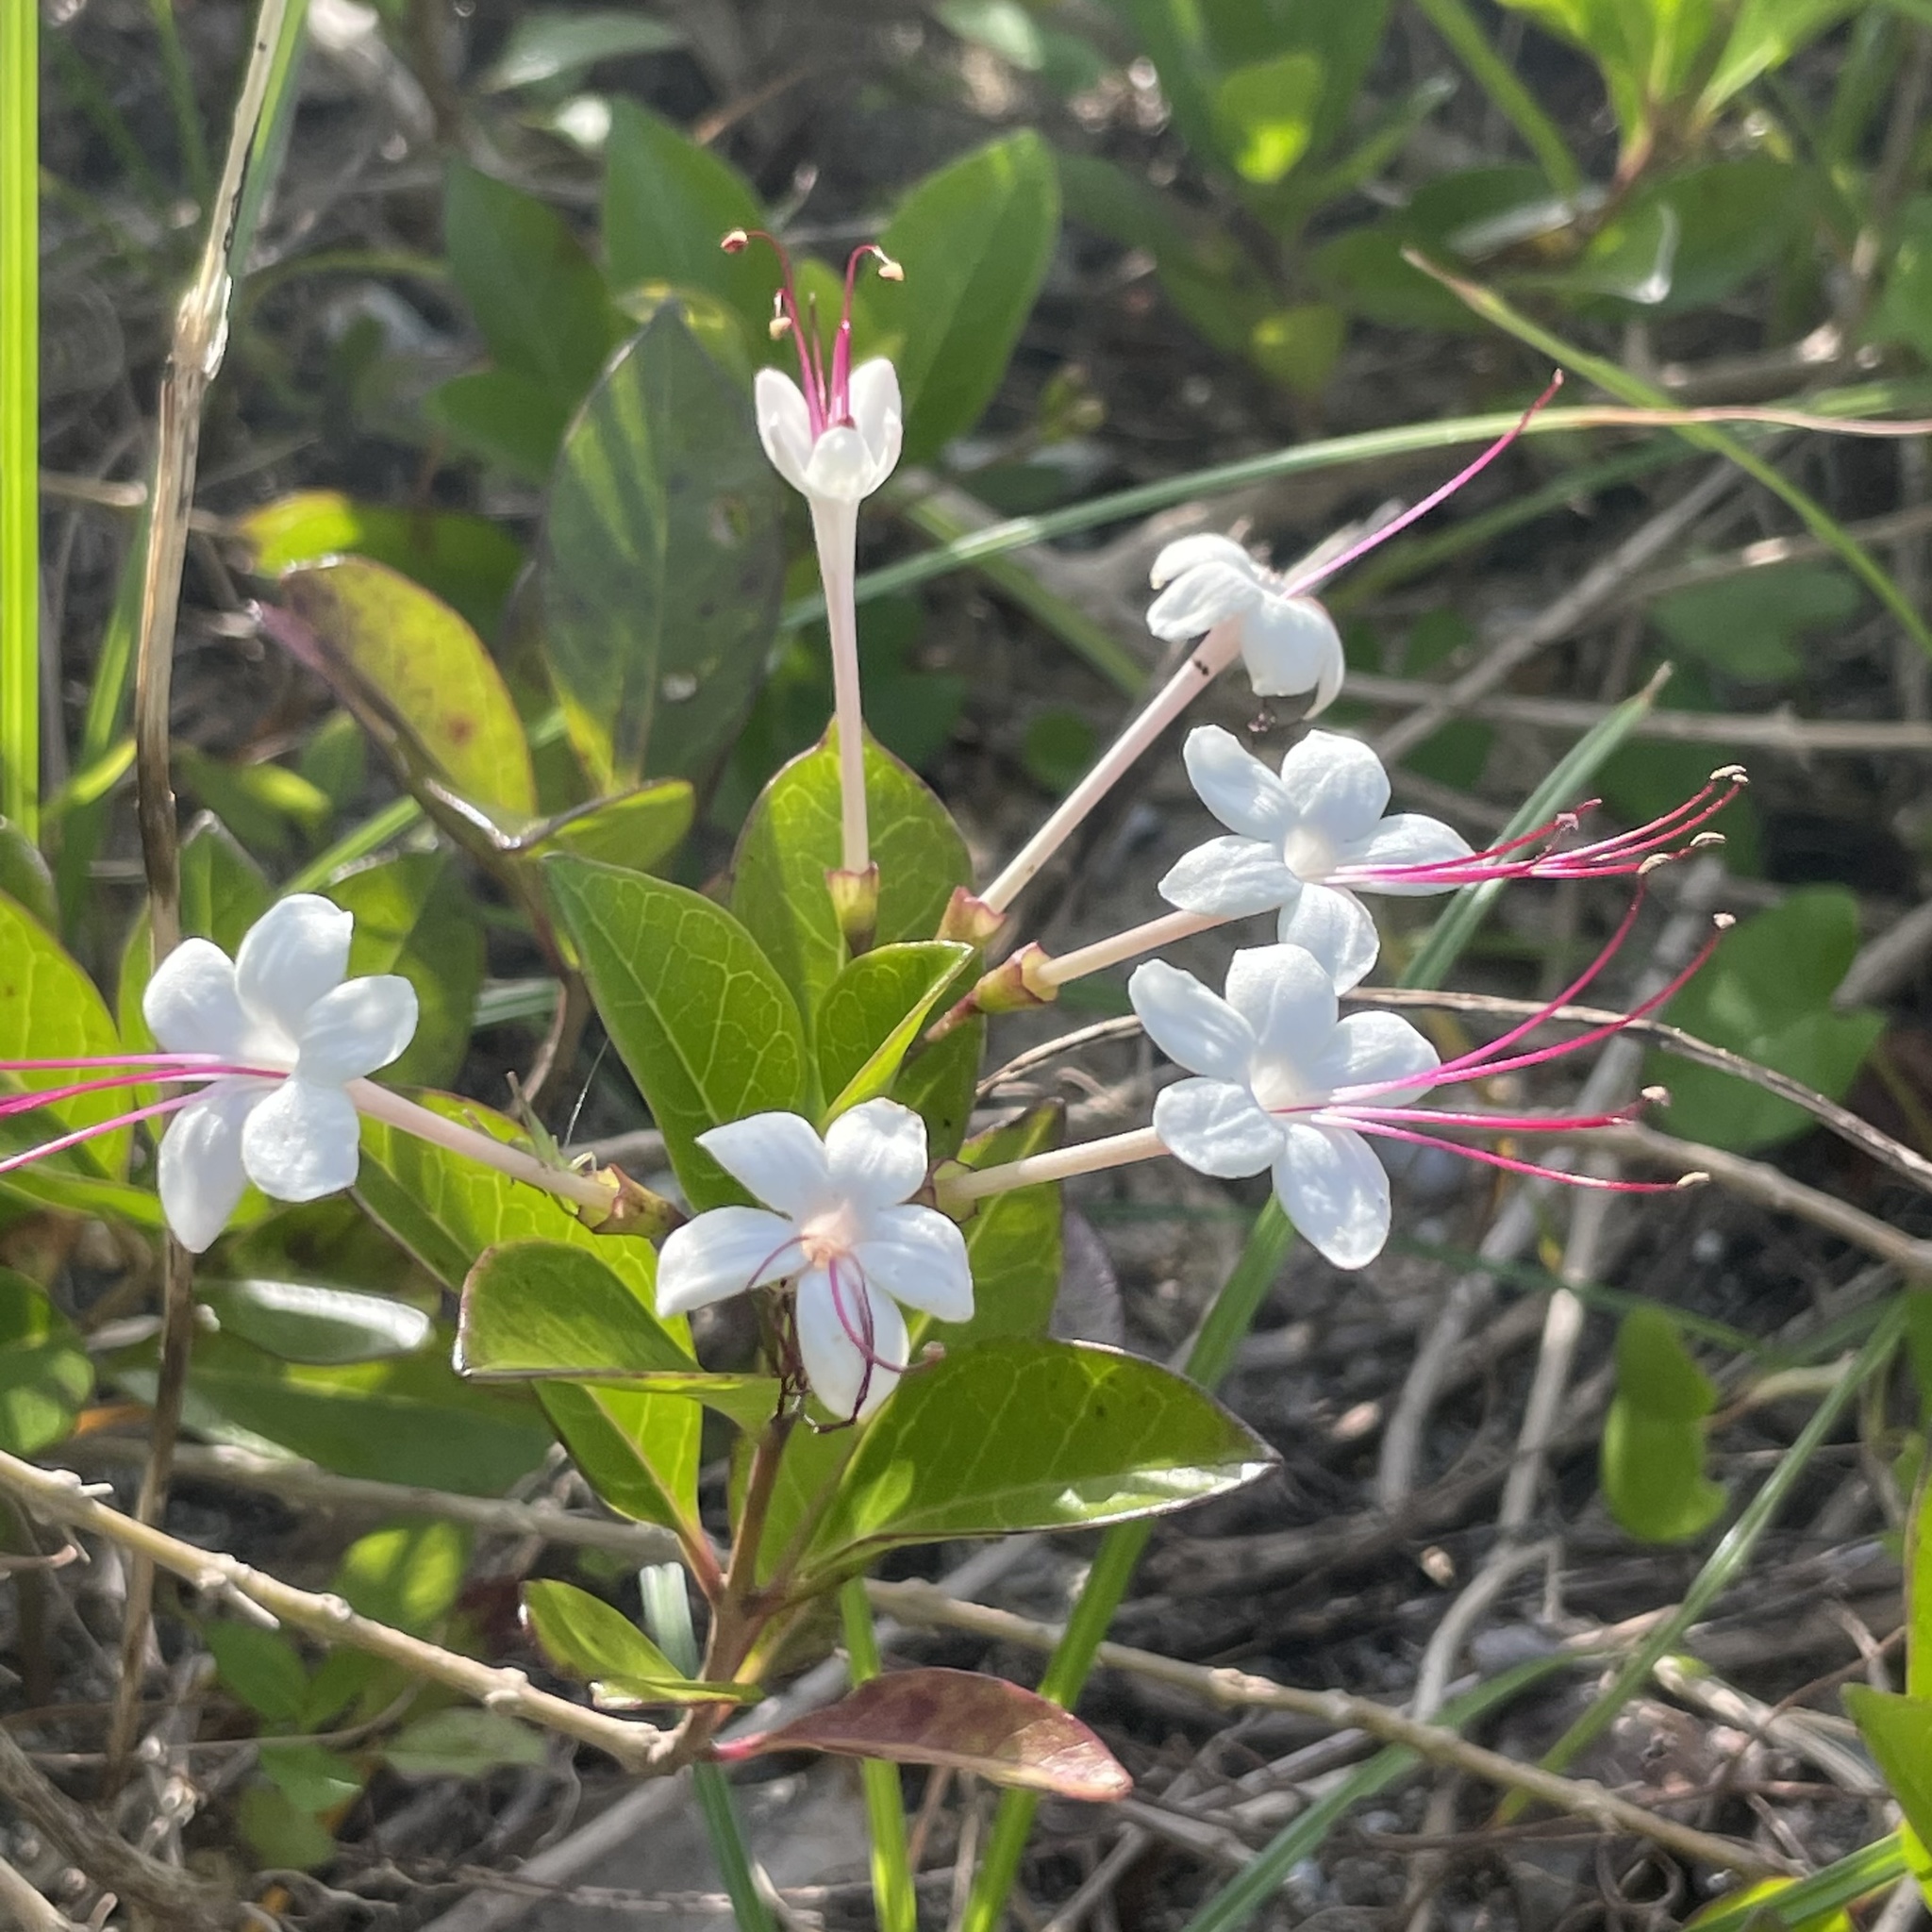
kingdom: Plantae
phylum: Tracheophyta
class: Magnoliopsida
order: Lamiales
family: Lamiaceae
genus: Volkameria
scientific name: Volkameria inermis
